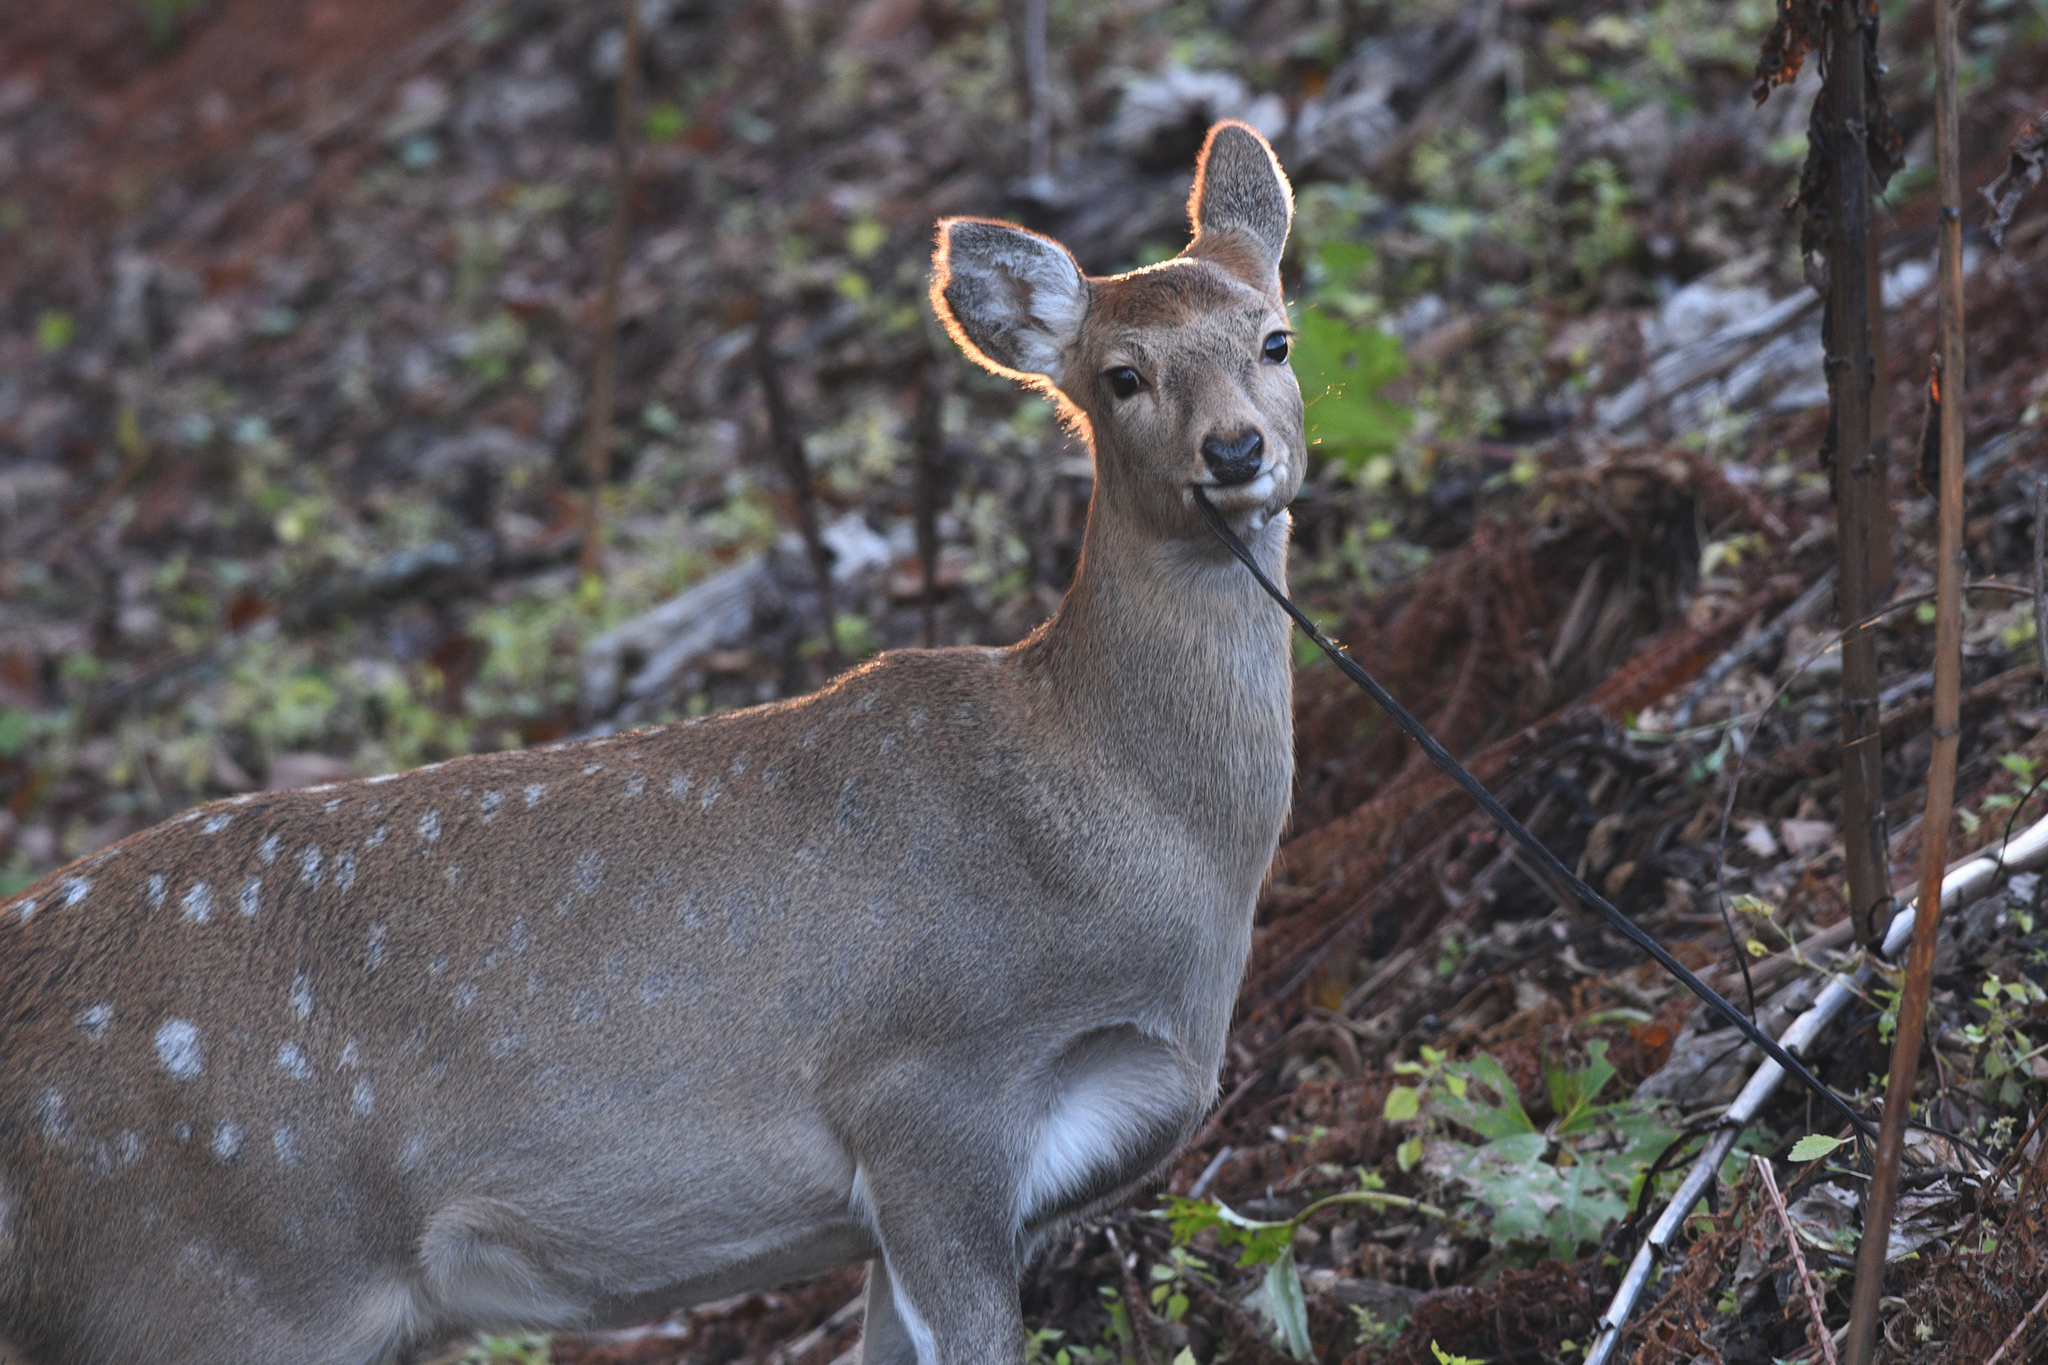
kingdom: Animalia
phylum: Chordata
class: Mammalia
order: Artiodactyla
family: Cervidae
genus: Cervus
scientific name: Cervus nippon
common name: Sika deer
